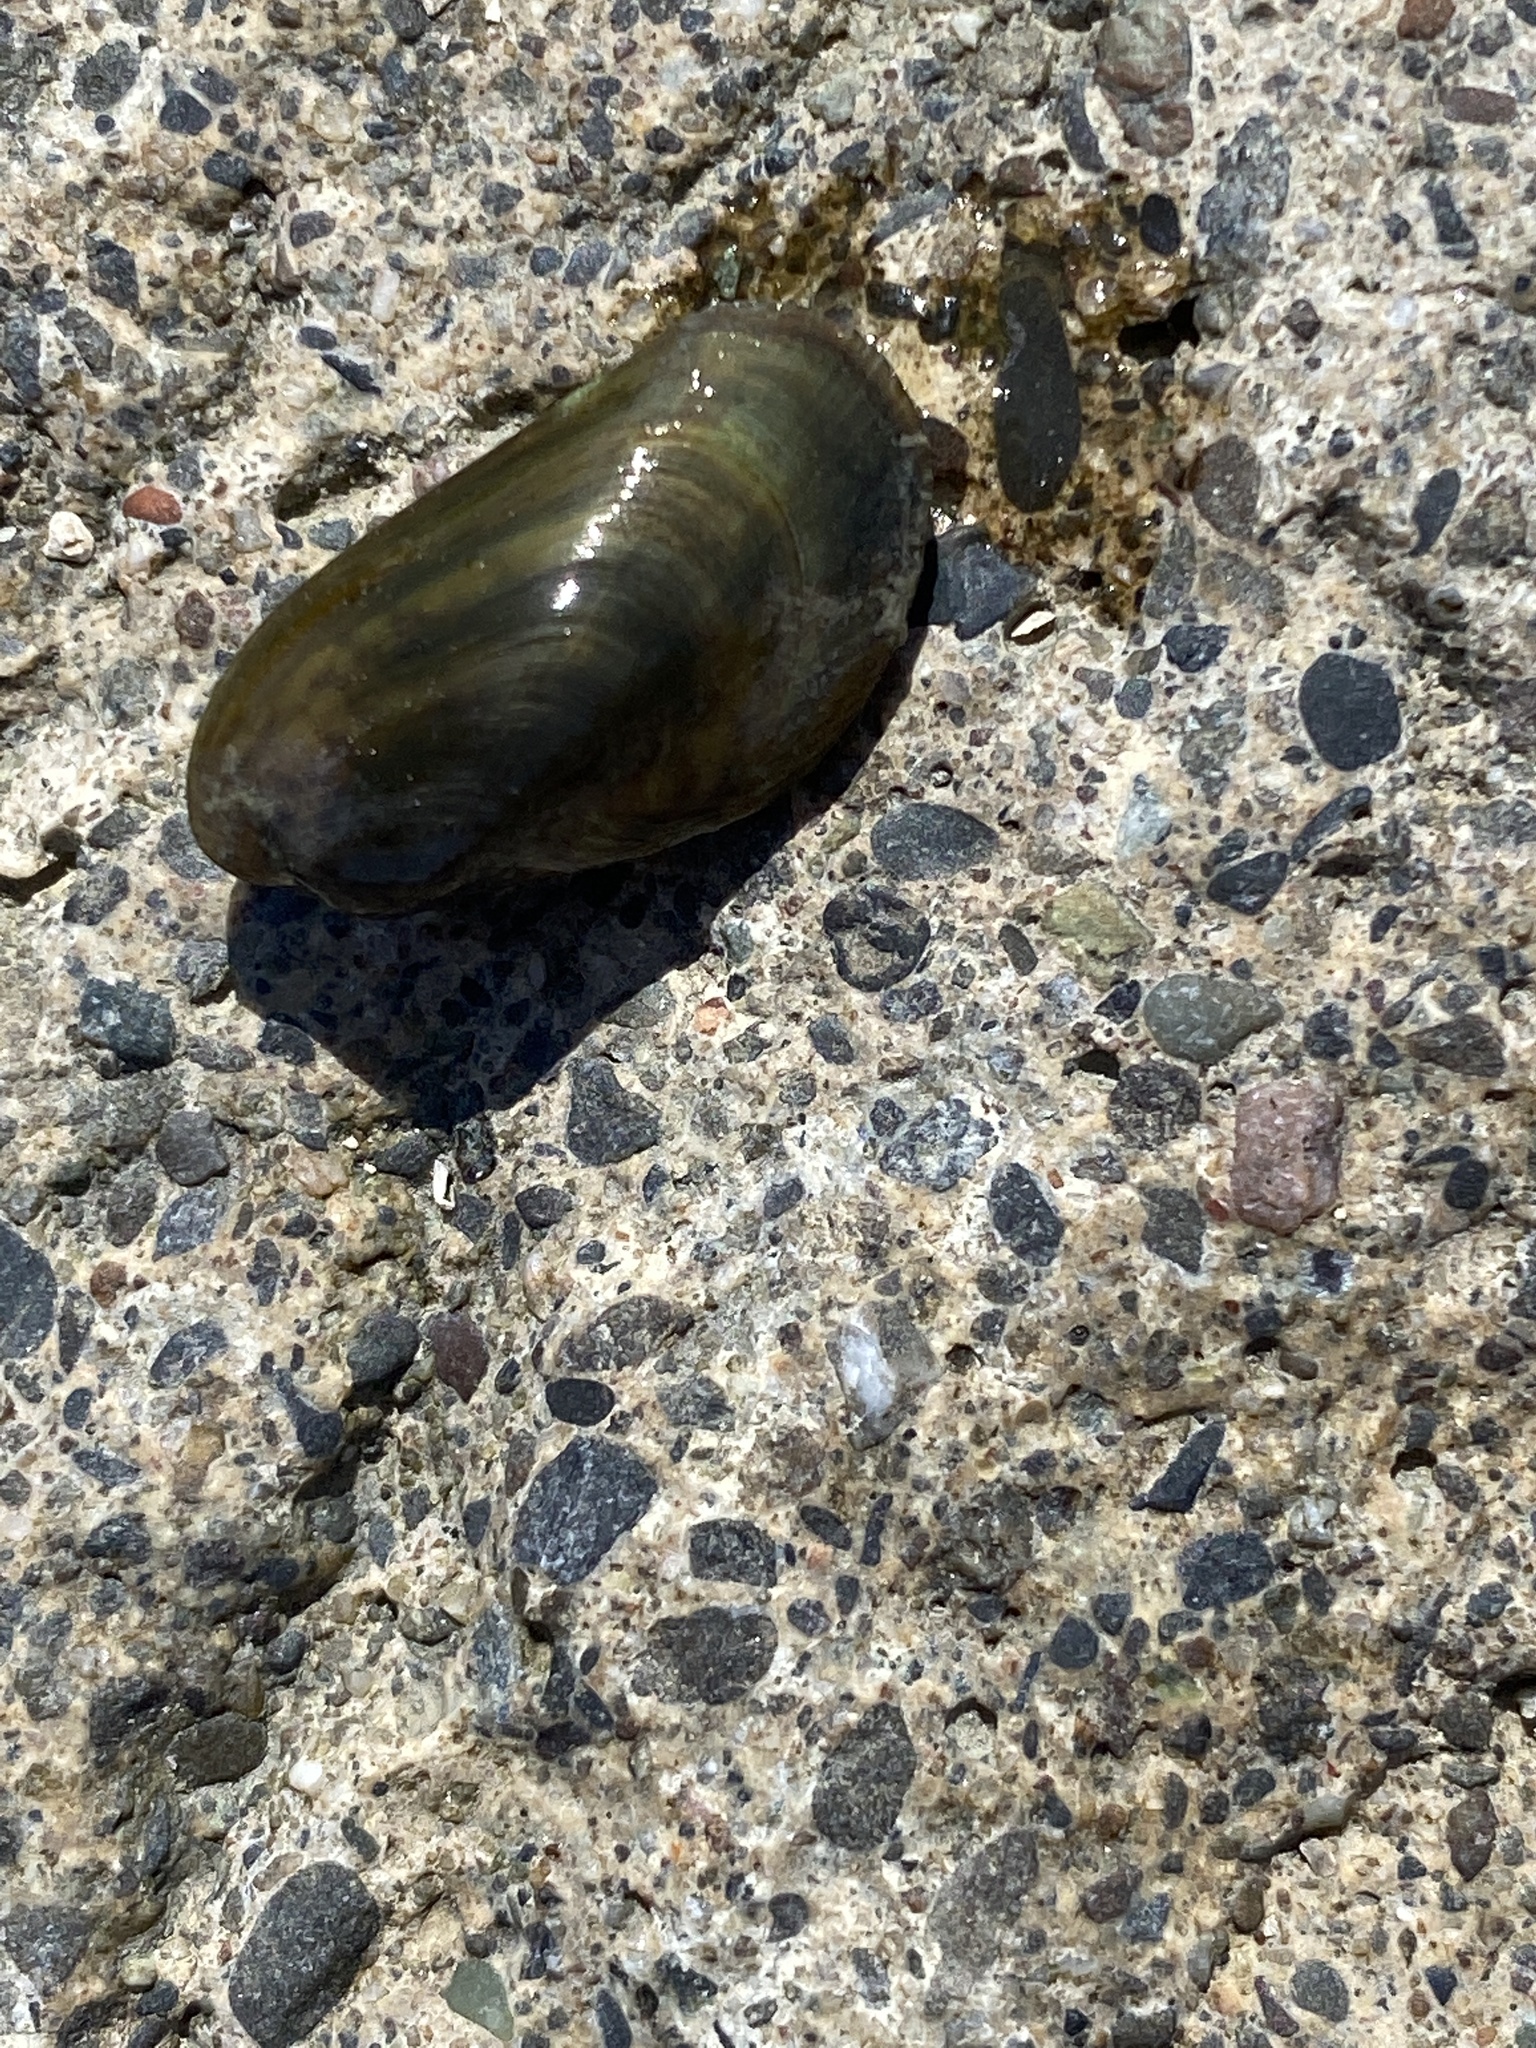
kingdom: Animalia
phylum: Mollusca
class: Bivalvia
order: Mytilida
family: Mytilidae
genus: Arcuatula
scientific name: Arcuatula senhousia
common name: Asian mussel
